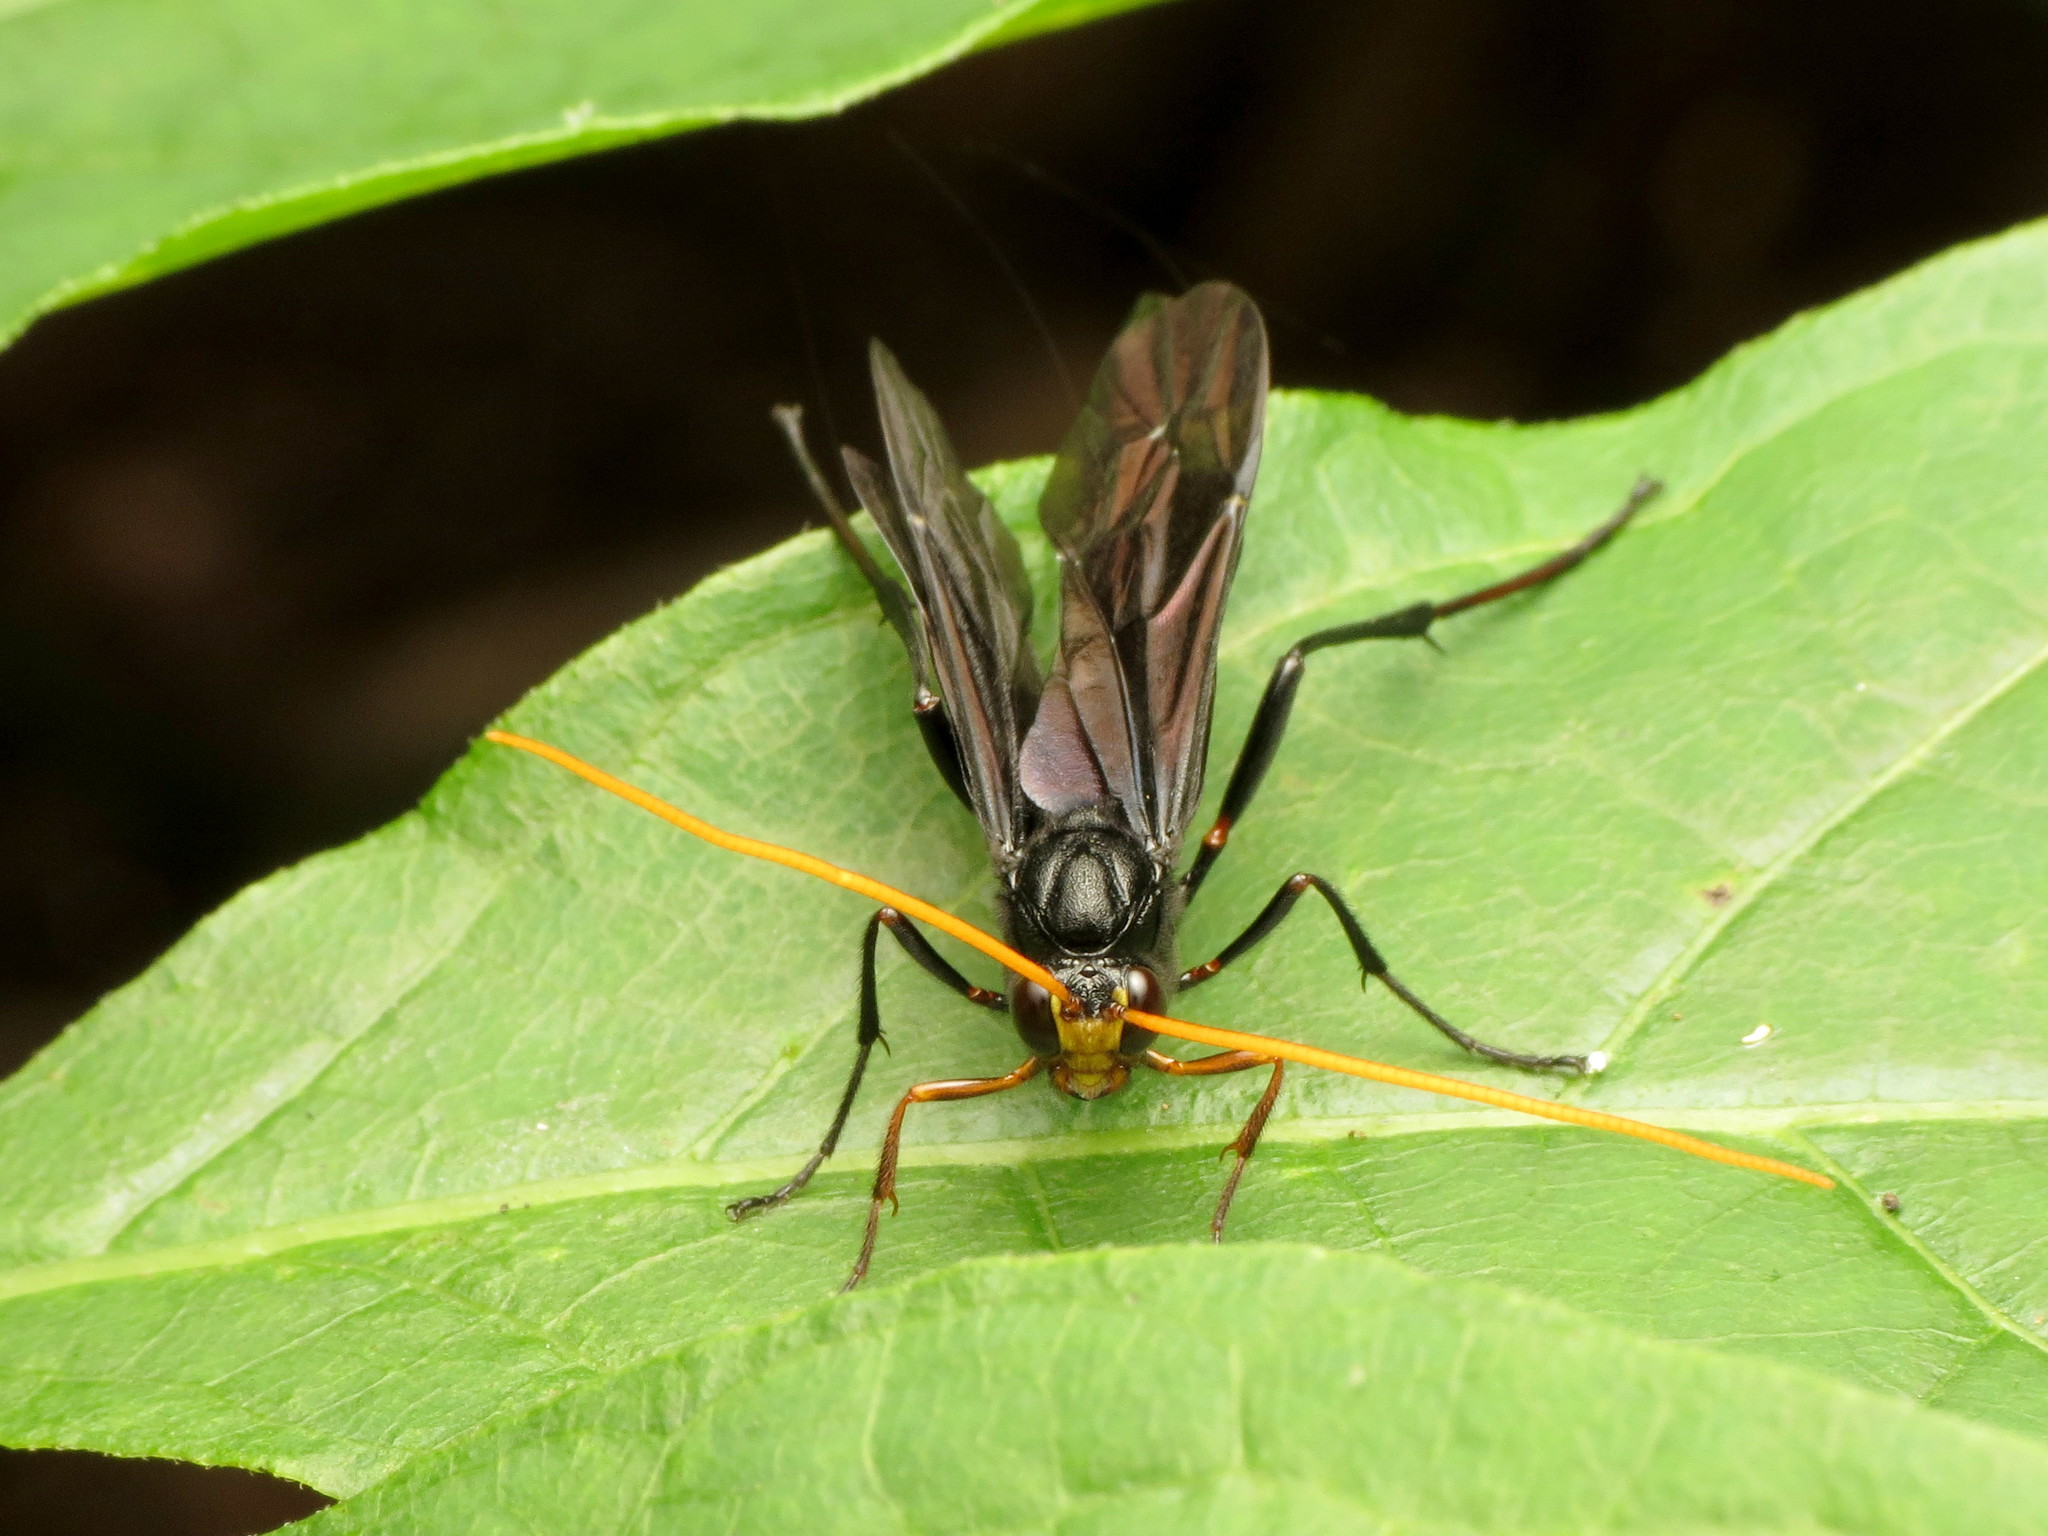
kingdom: Animalia
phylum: Arthropoda
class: Insecta
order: Hymenoptera
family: Ichneumonidae
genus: Heteropelma
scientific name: Heteropelma datanae
